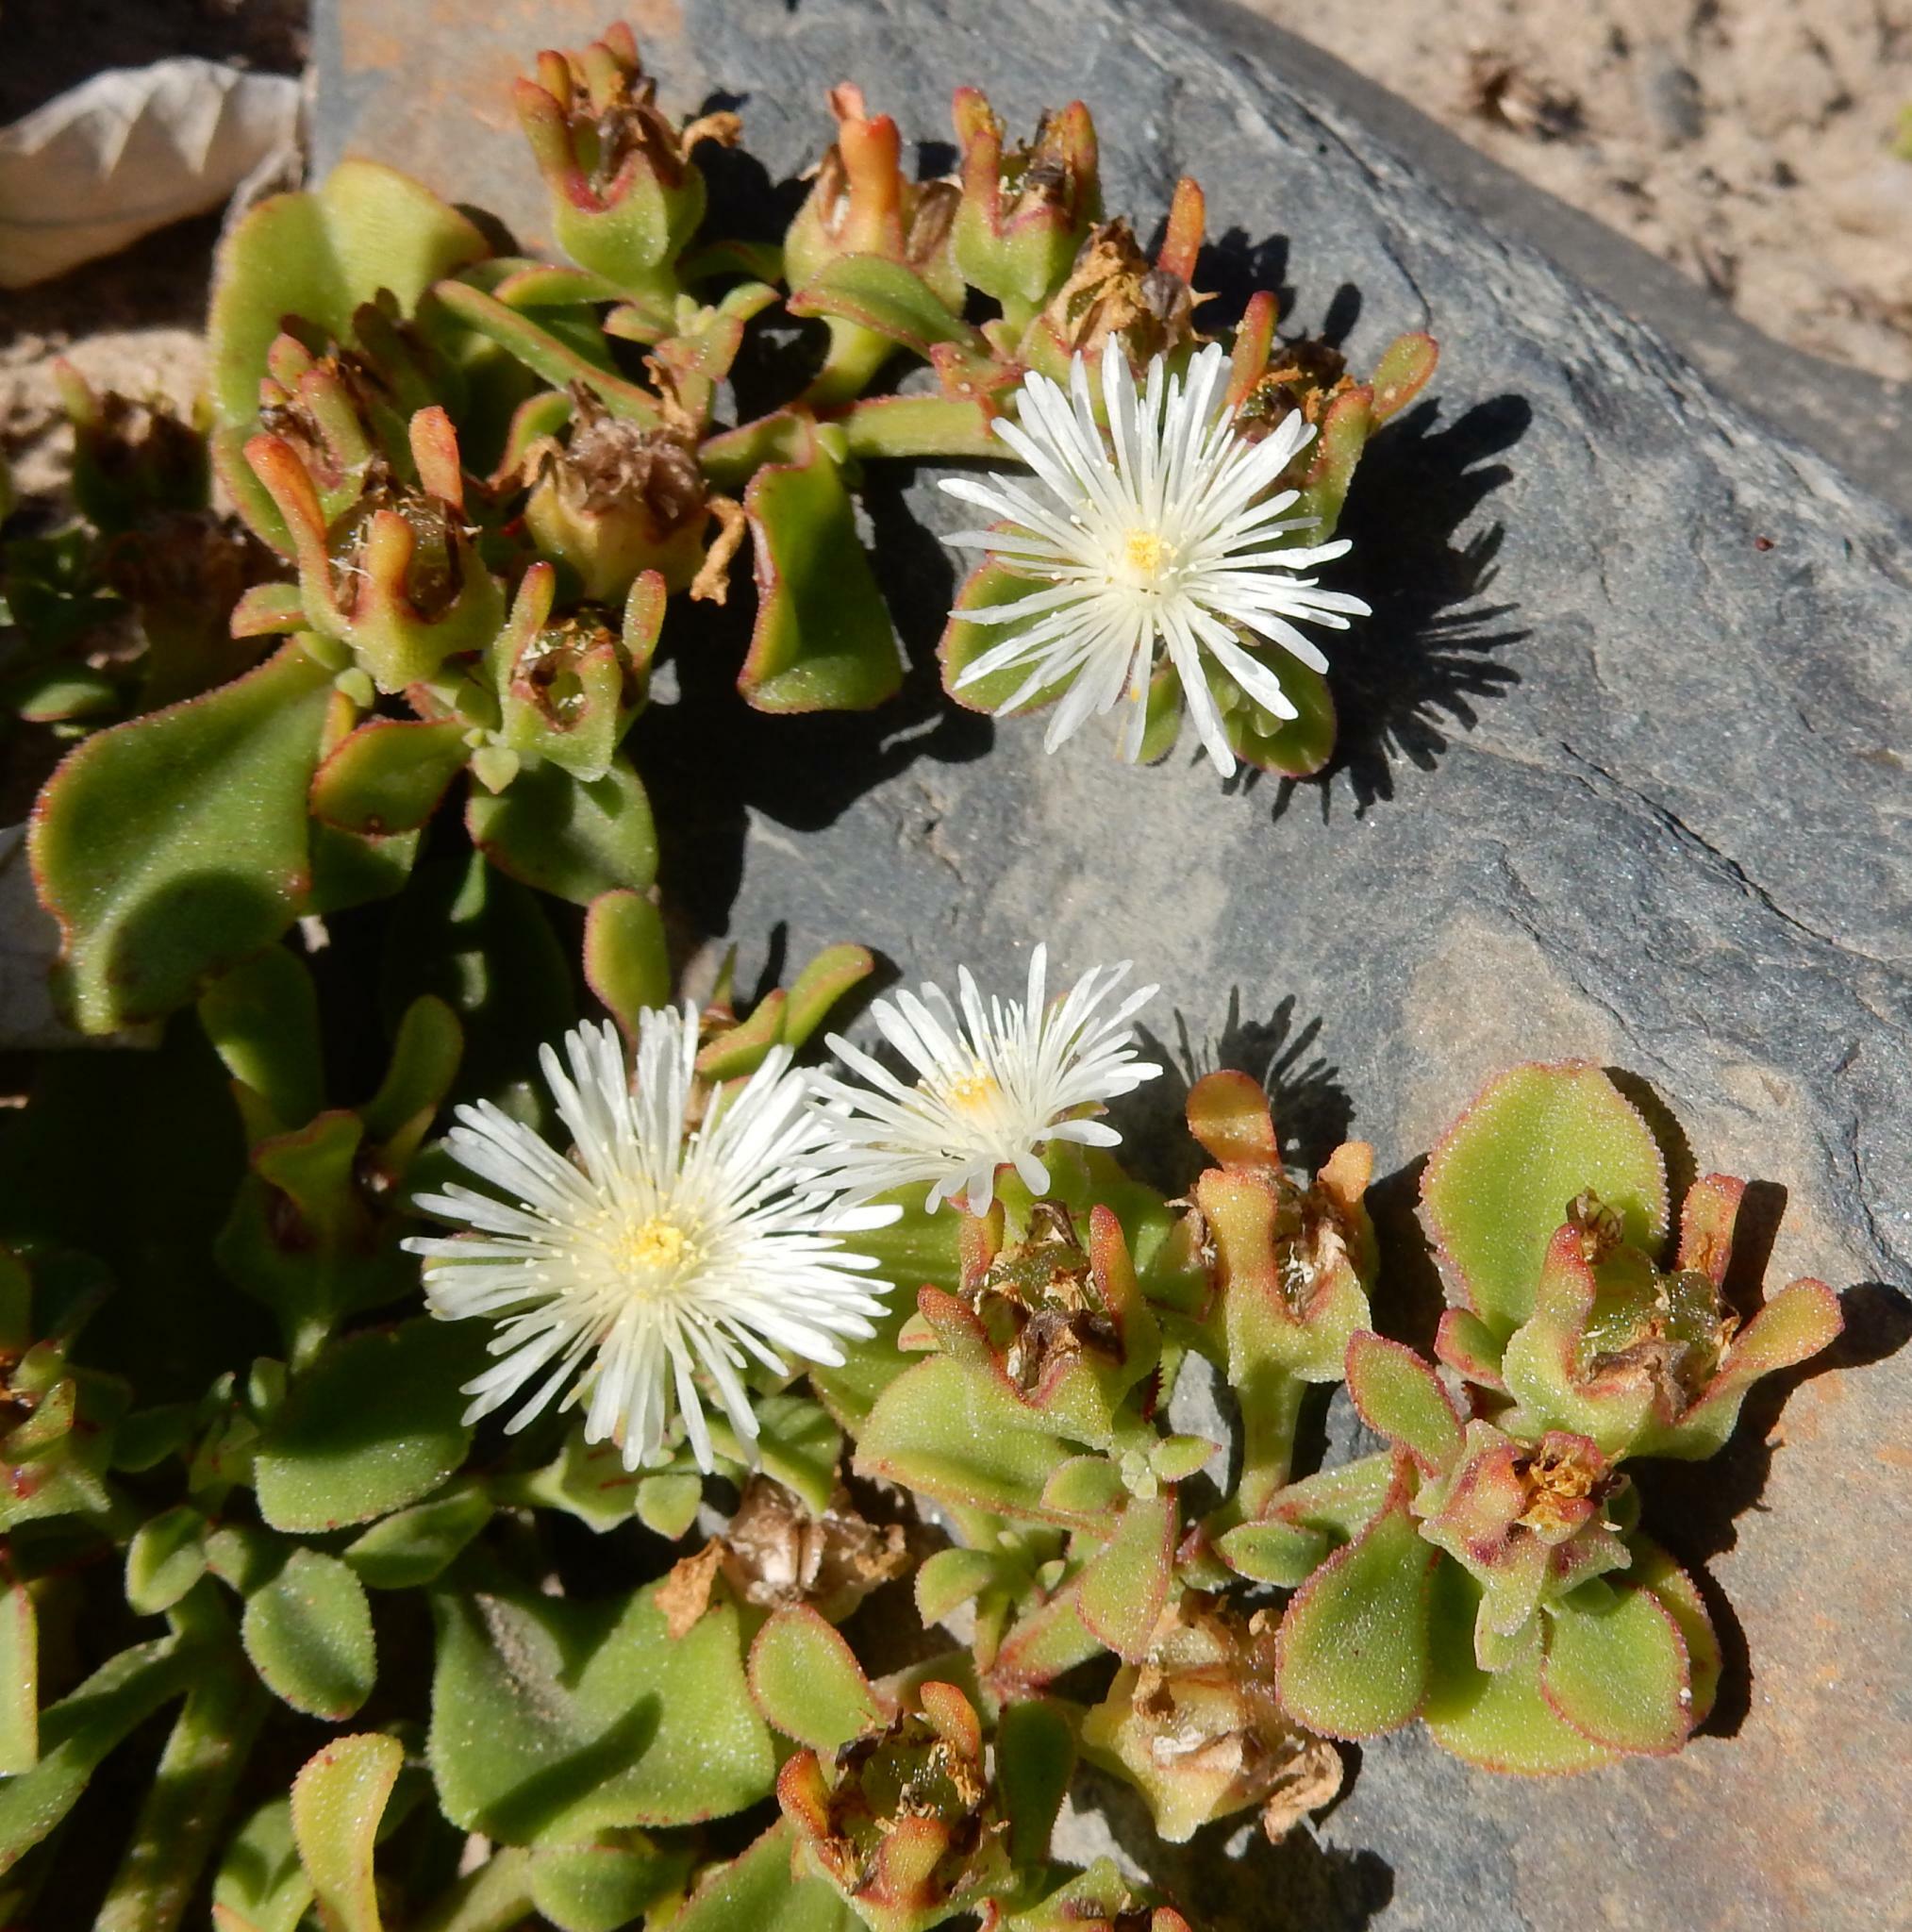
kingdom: Plantae
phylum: Tracheophyta
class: Magnoliopsida
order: Caryophyllales
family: Aizoaceae
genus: Mesembryanthemum
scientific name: Mesembryanthemum aitonis
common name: Angled iceplant
